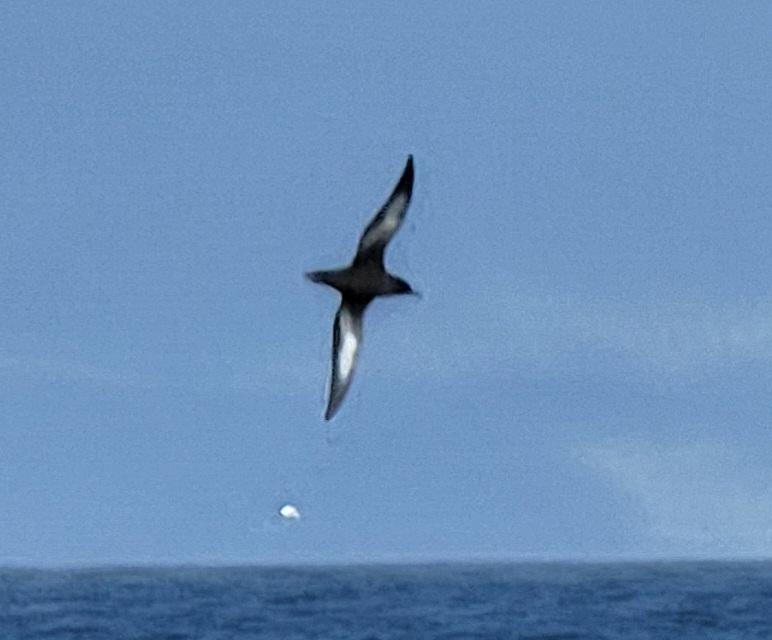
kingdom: Animalia
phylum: Chordata
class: Aves
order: Procellariiformes
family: Procellariidae
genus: Puffinus
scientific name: Puffinus griseus
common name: Sooty shearwater
